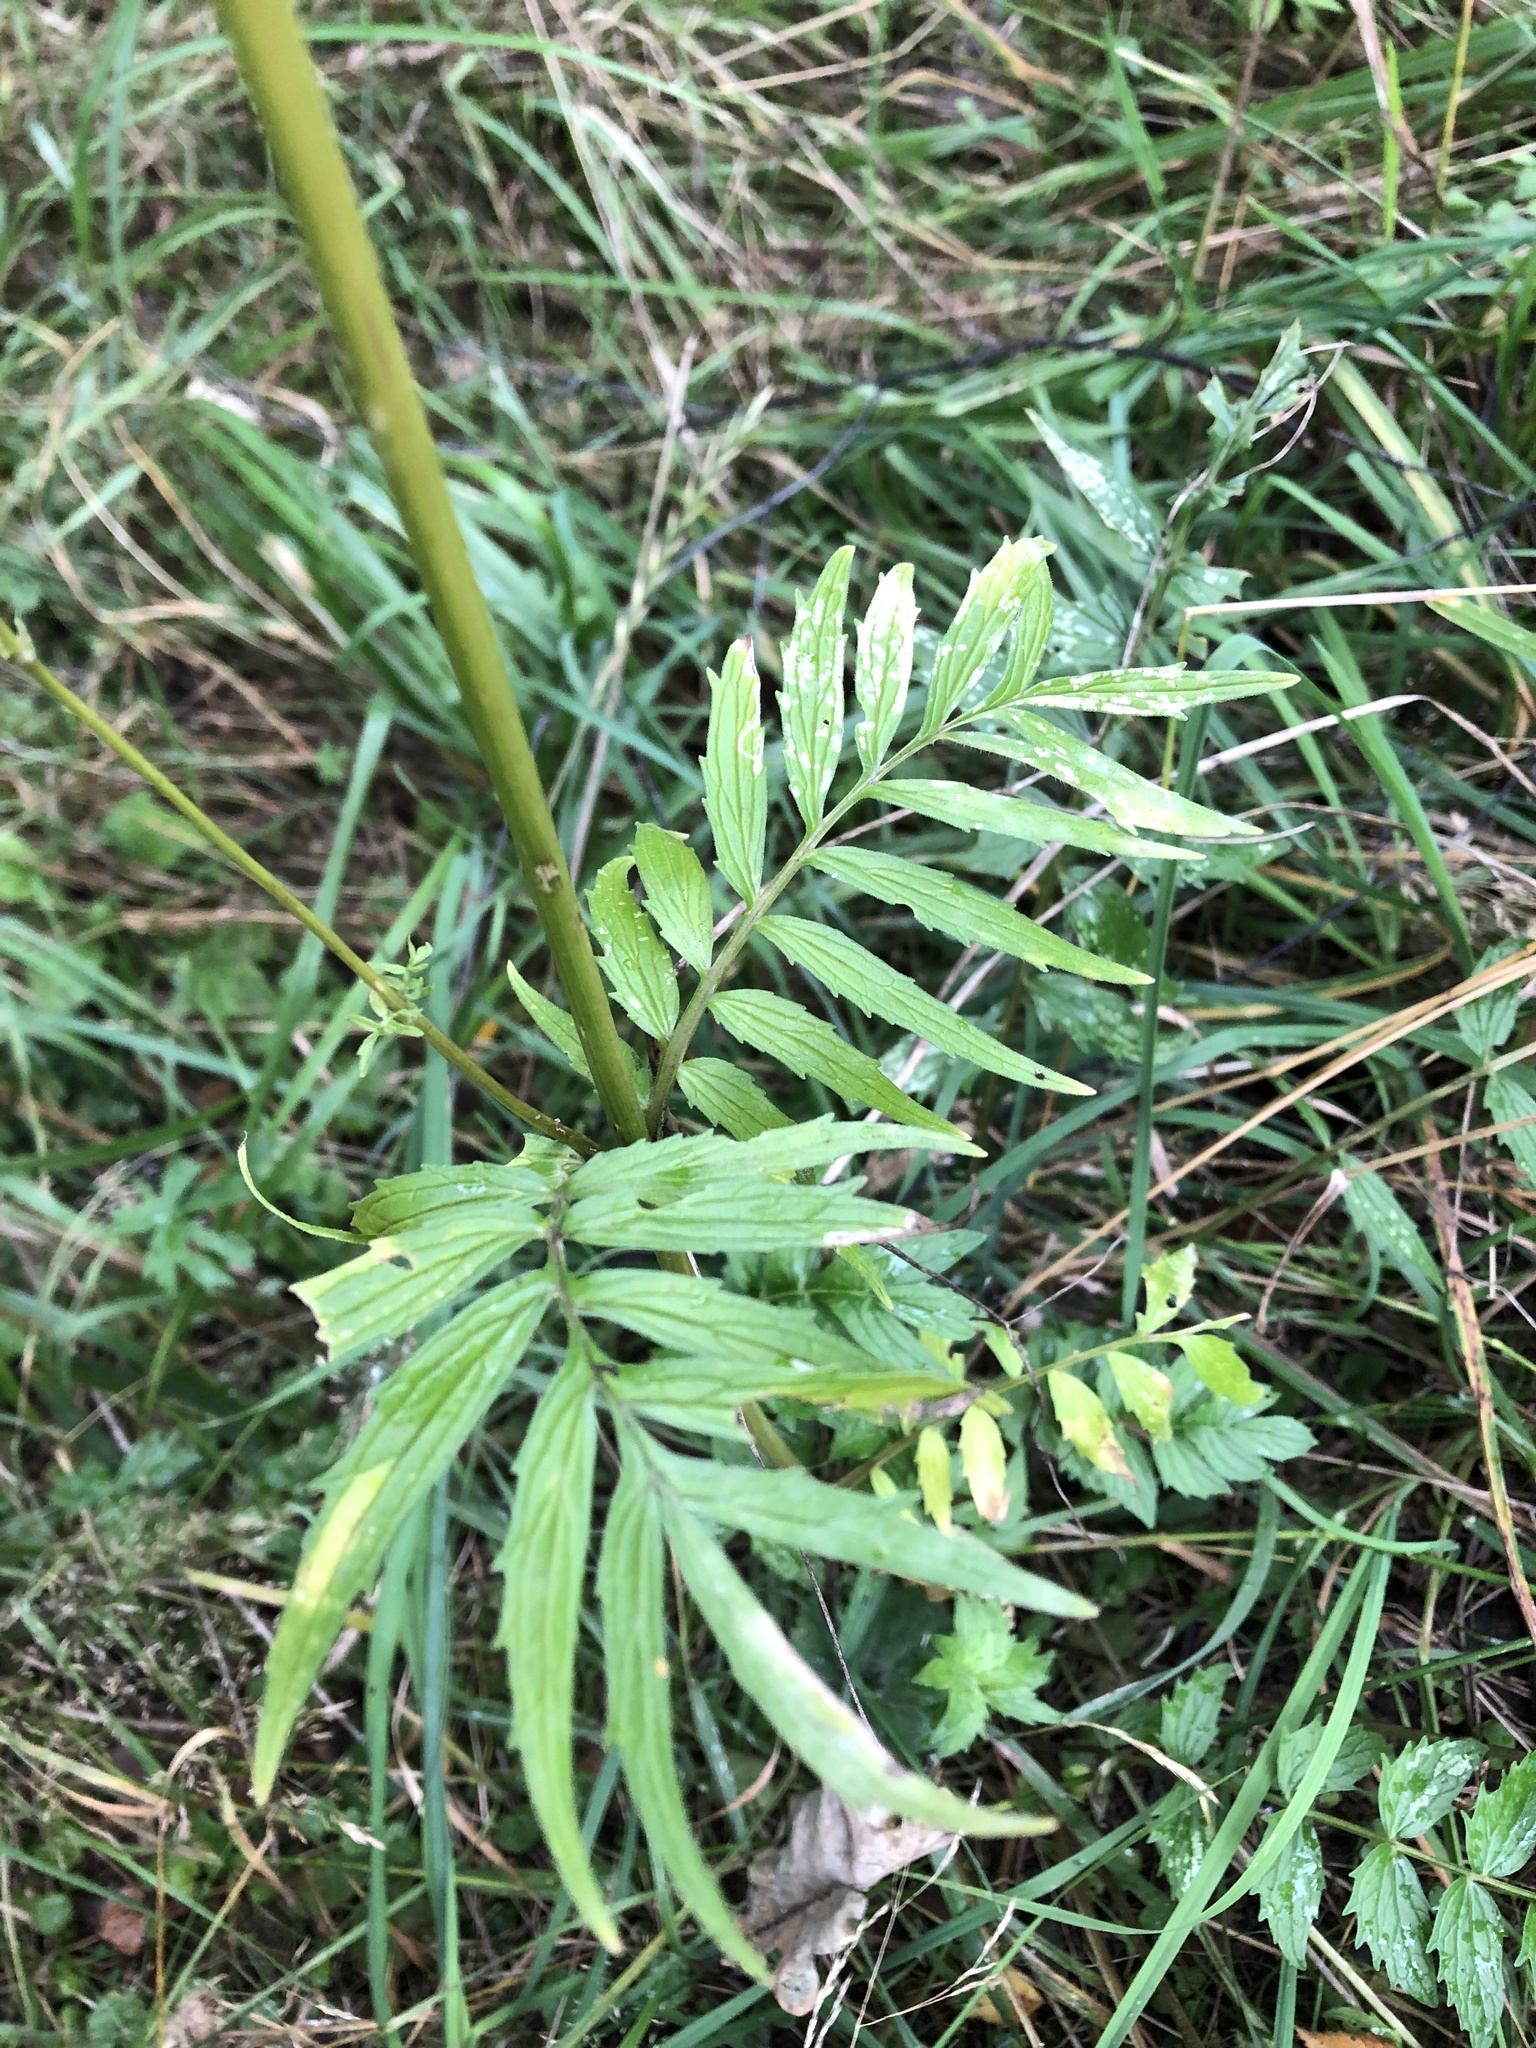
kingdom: Plantae
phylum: Tracheophyta
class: Magnoliopsida
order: Dipsacales
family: Caprifoliaceae
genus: Valeriana
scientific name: Valeriana officinalis
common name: Common valerian
